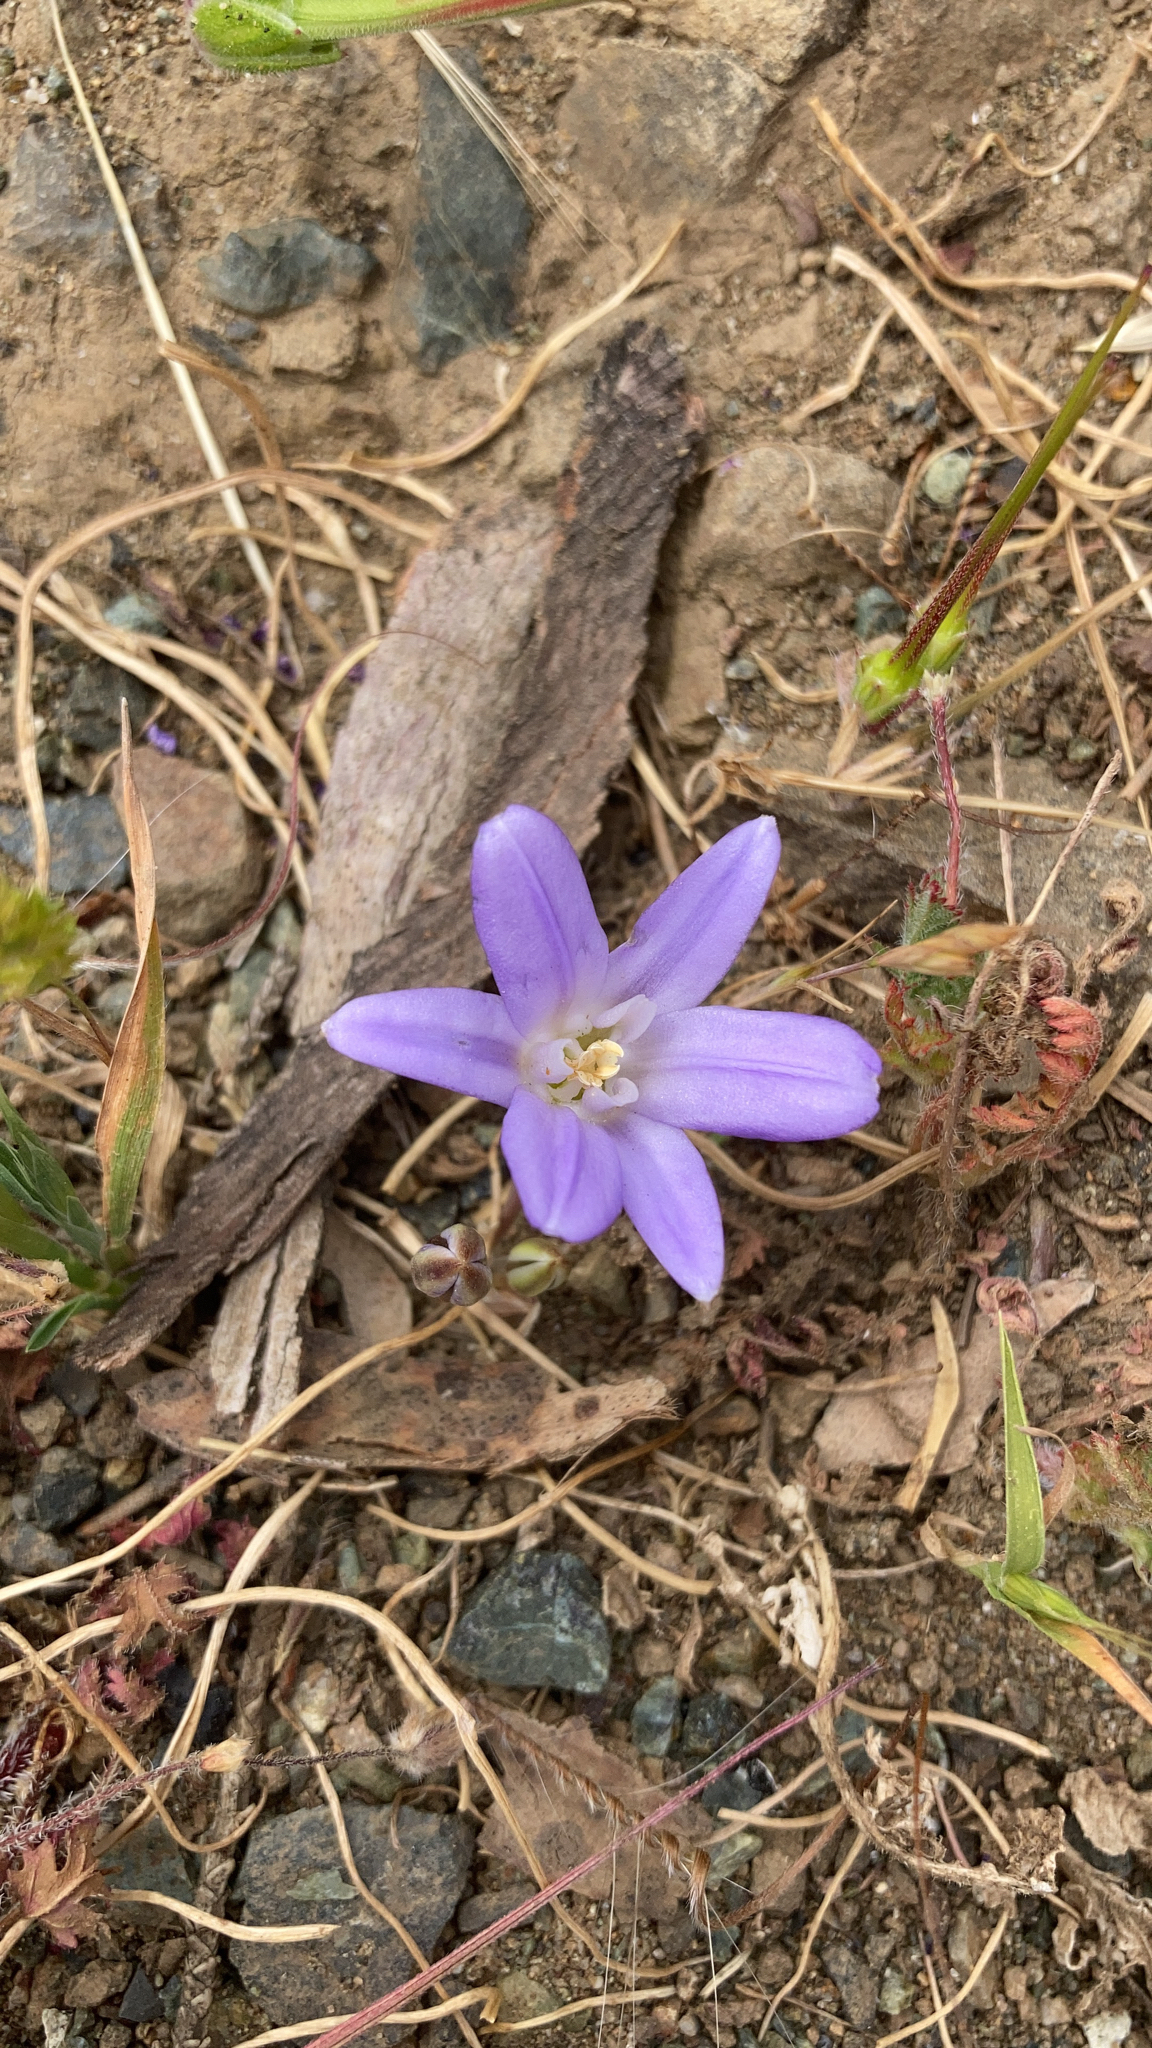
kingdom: Plantae
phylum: Tracheophyta
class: Liliopsida
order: Asparagales
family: Asparagaceae
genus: Brodiaea
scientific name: Brodiaea terrestris
